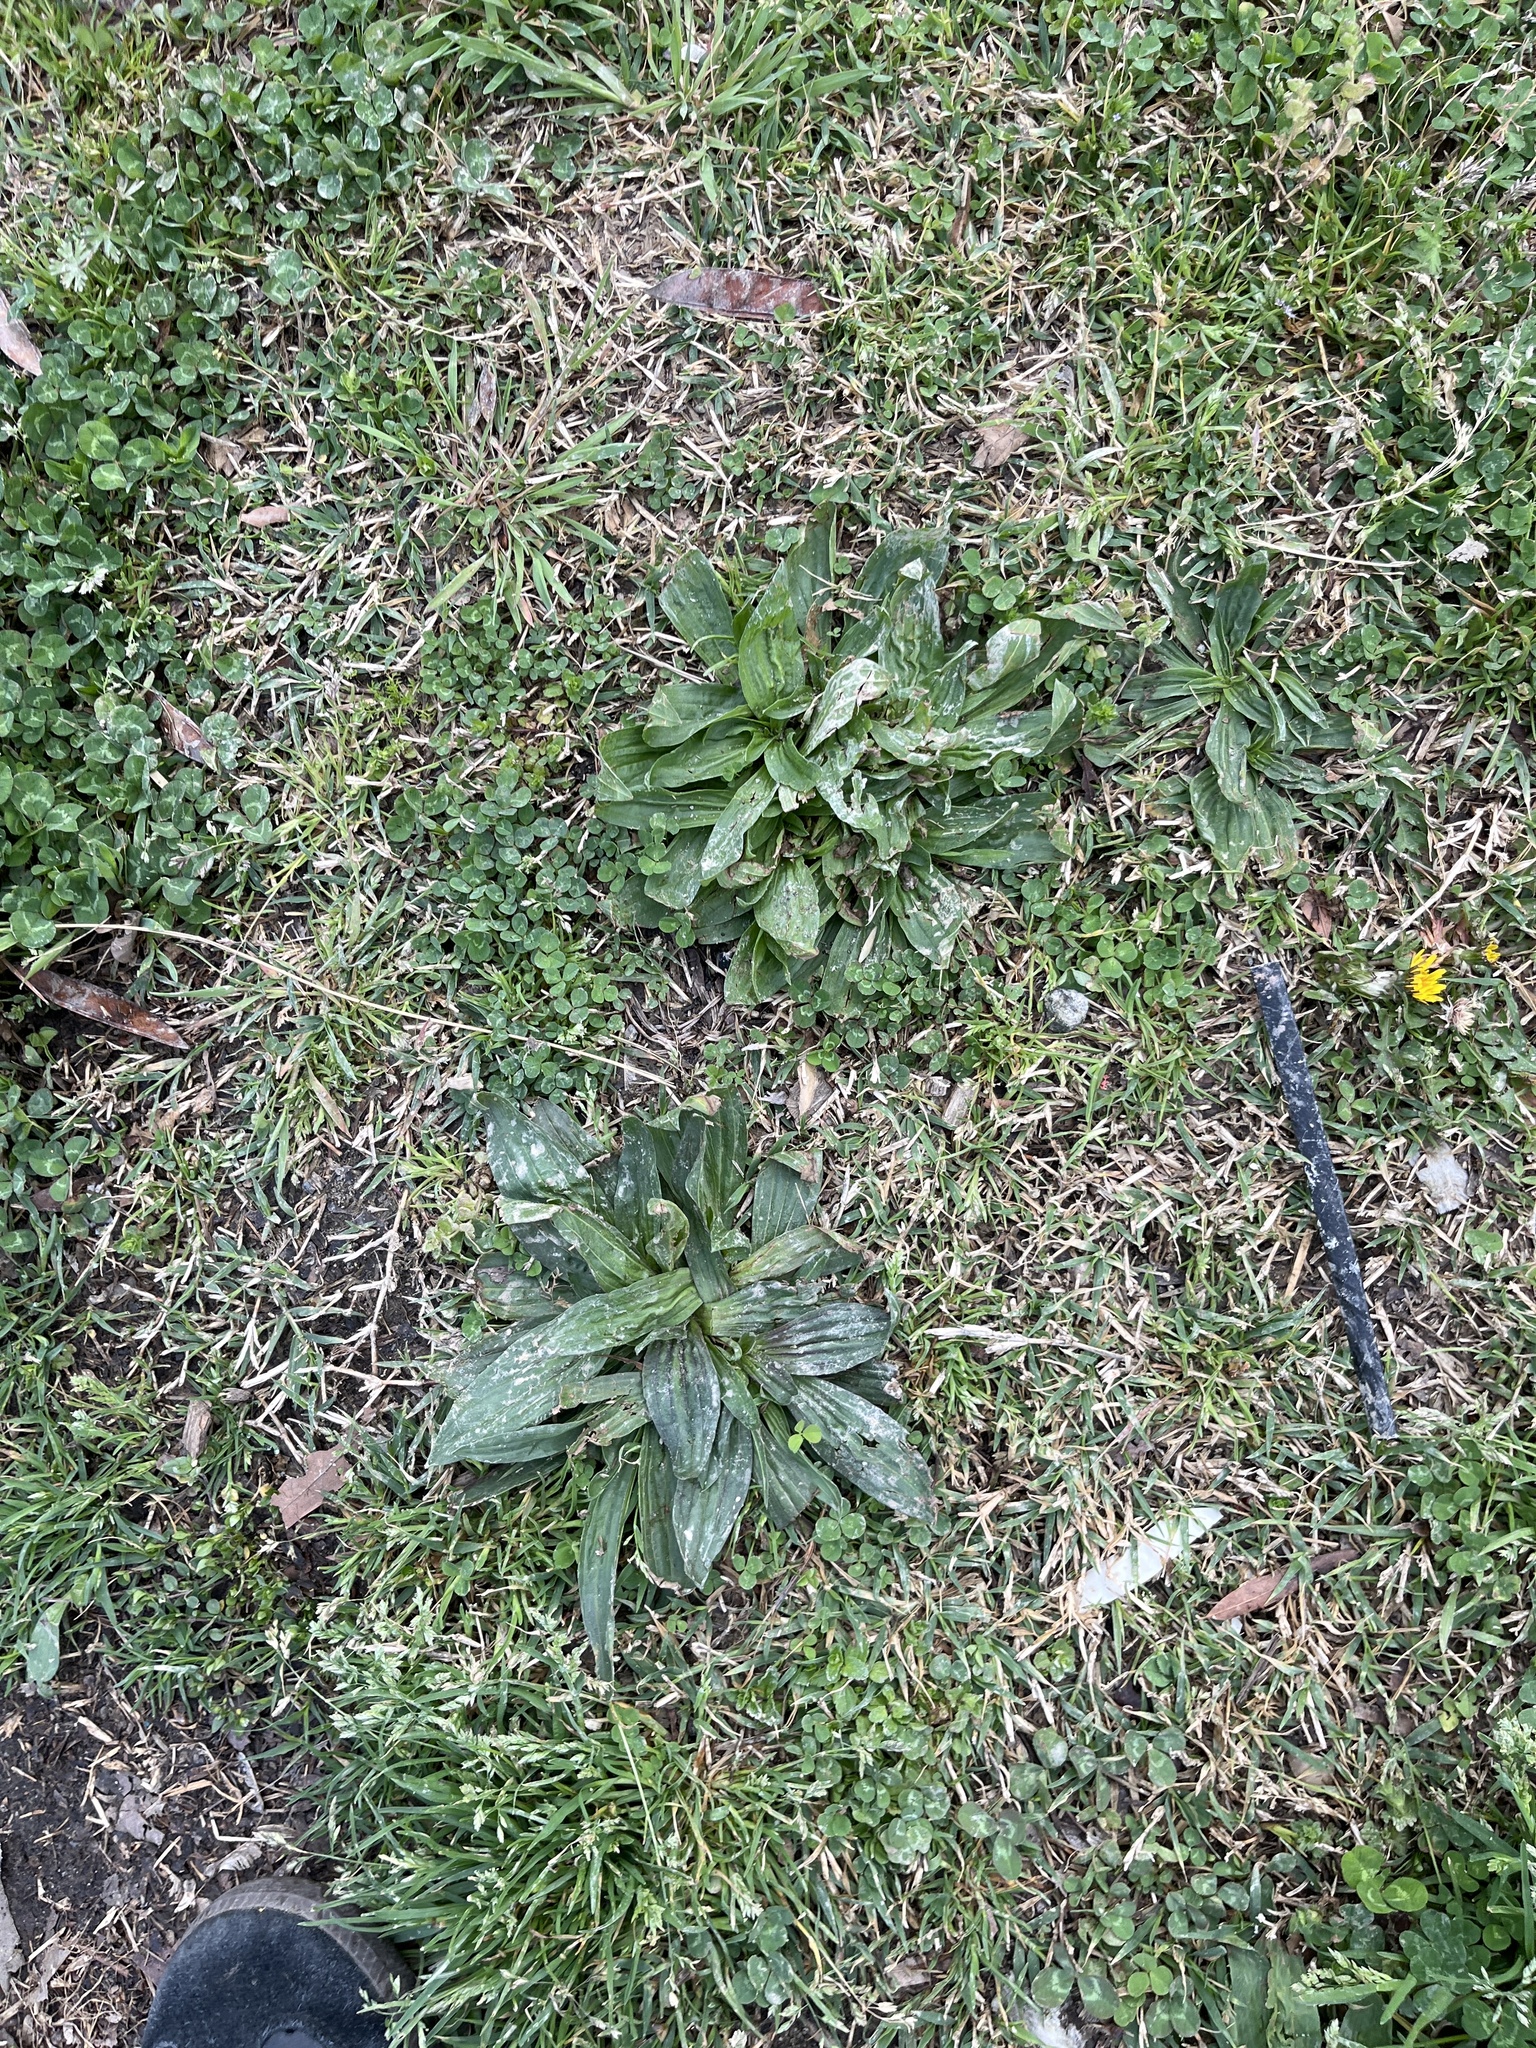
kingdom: Plantae
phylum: Tracheophyta
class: Magnoliopsida
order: Lamiales
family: Plantaginaceae
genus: Plantago
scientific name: Plantago lanceolata
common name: Ribwort plantain
